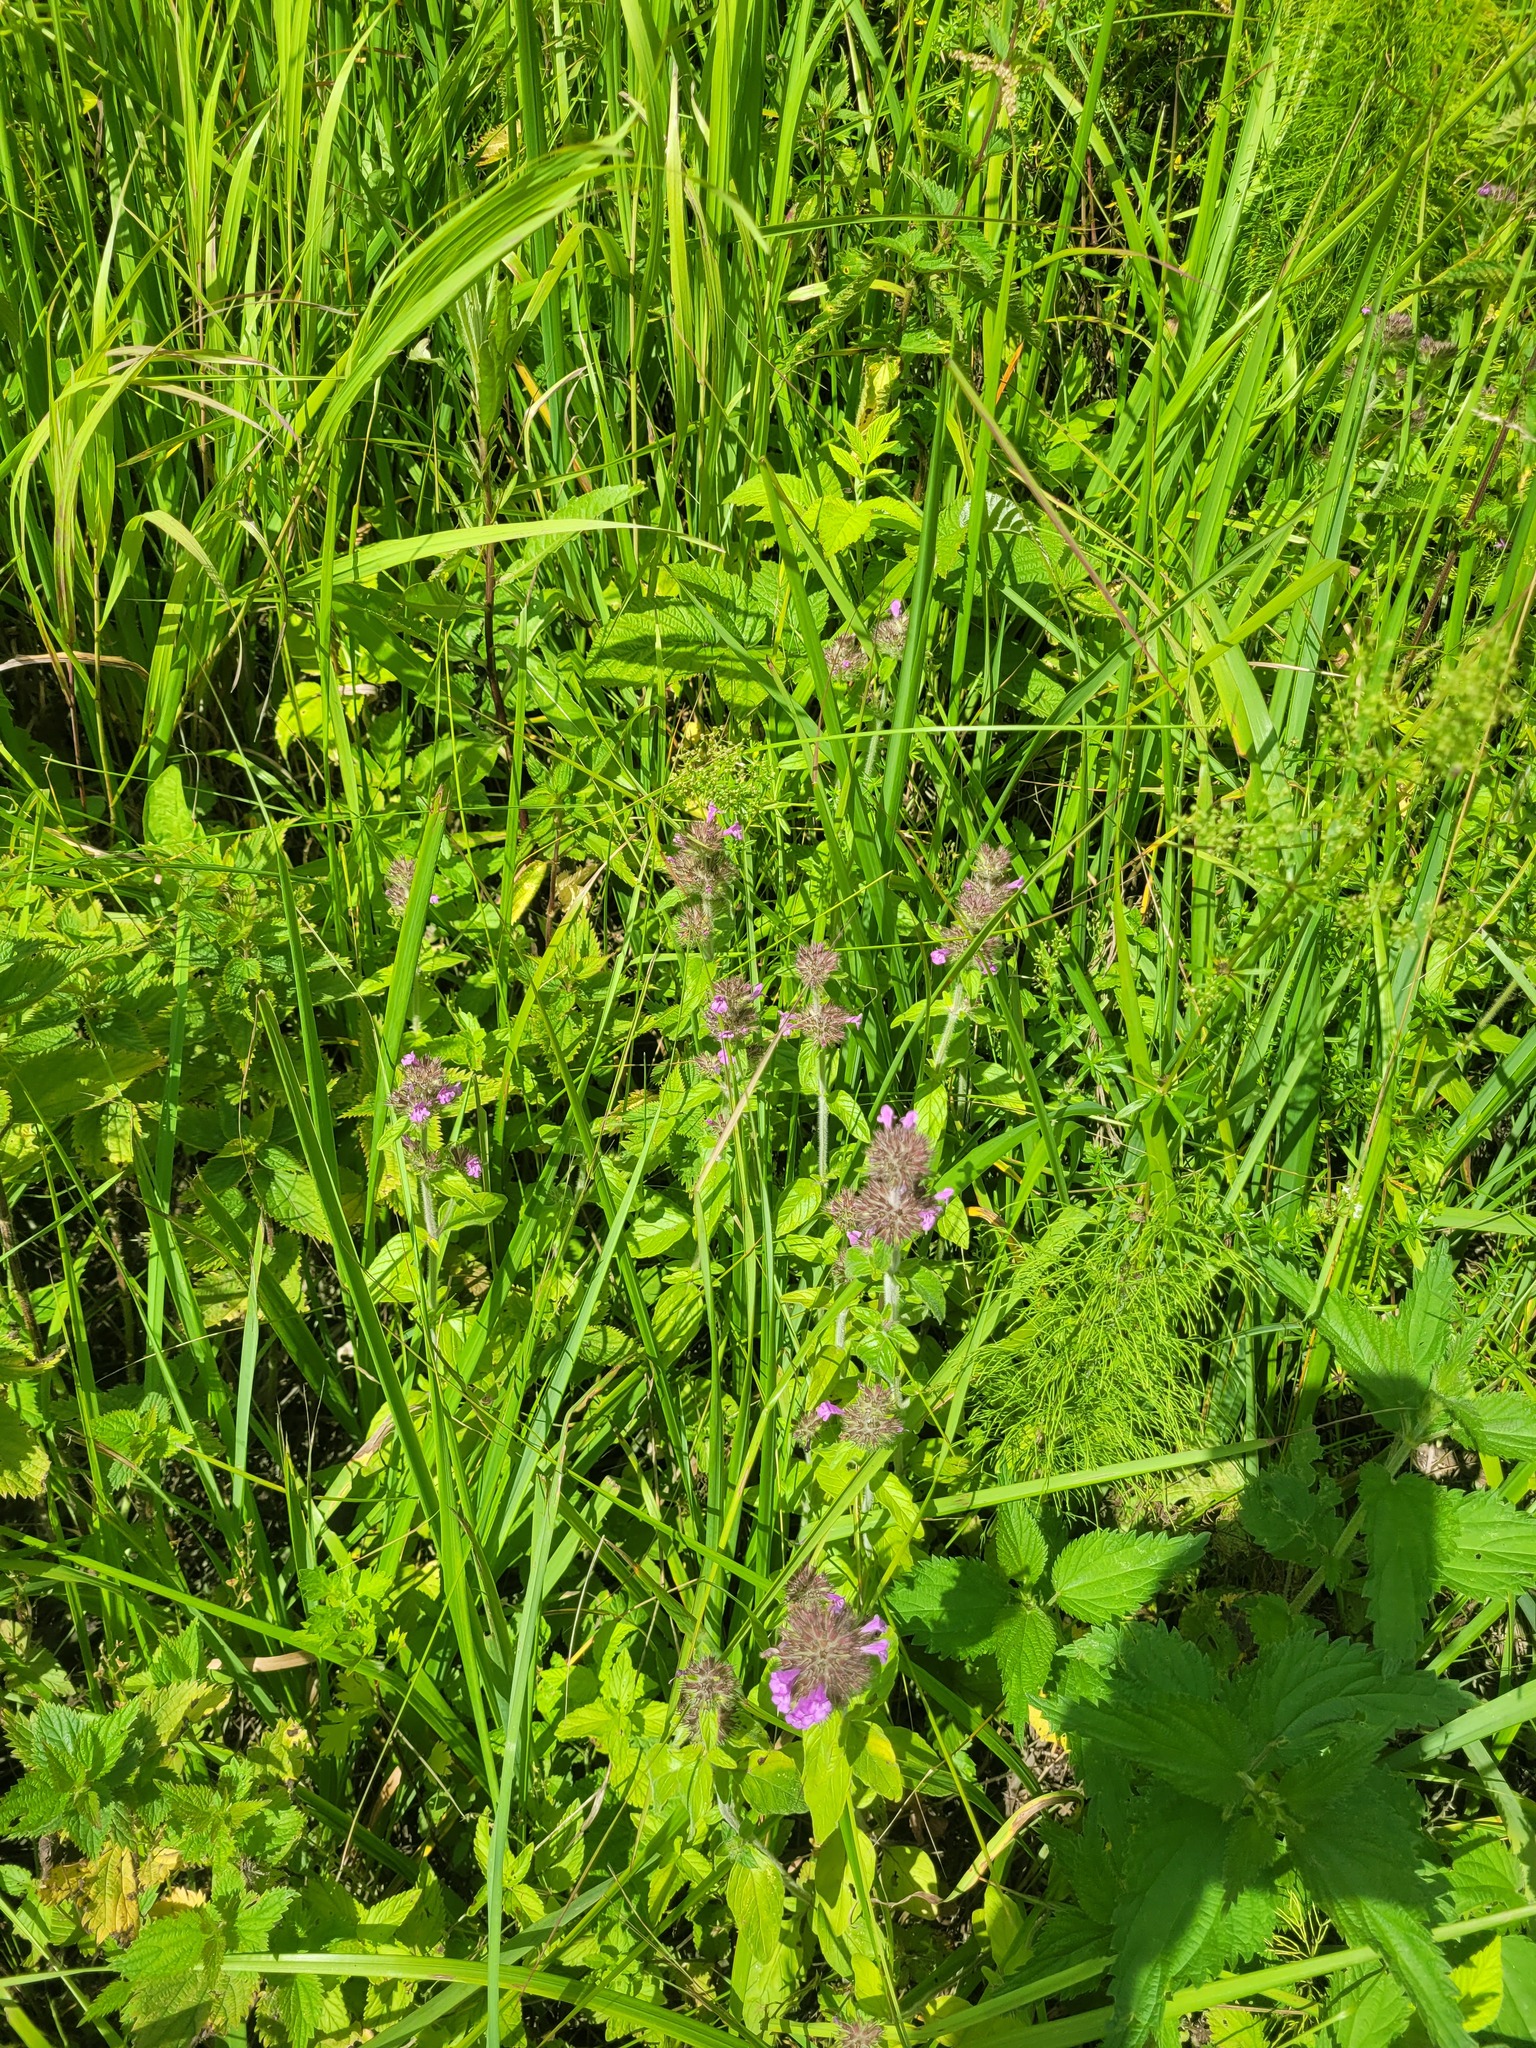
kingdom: Plantae
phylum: Tracheophyta
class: Magnoliopsida
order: Lamiales
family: Lamiaceae
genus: Clinopodium
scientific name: Clinopodium vulgare
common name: Wild basil
